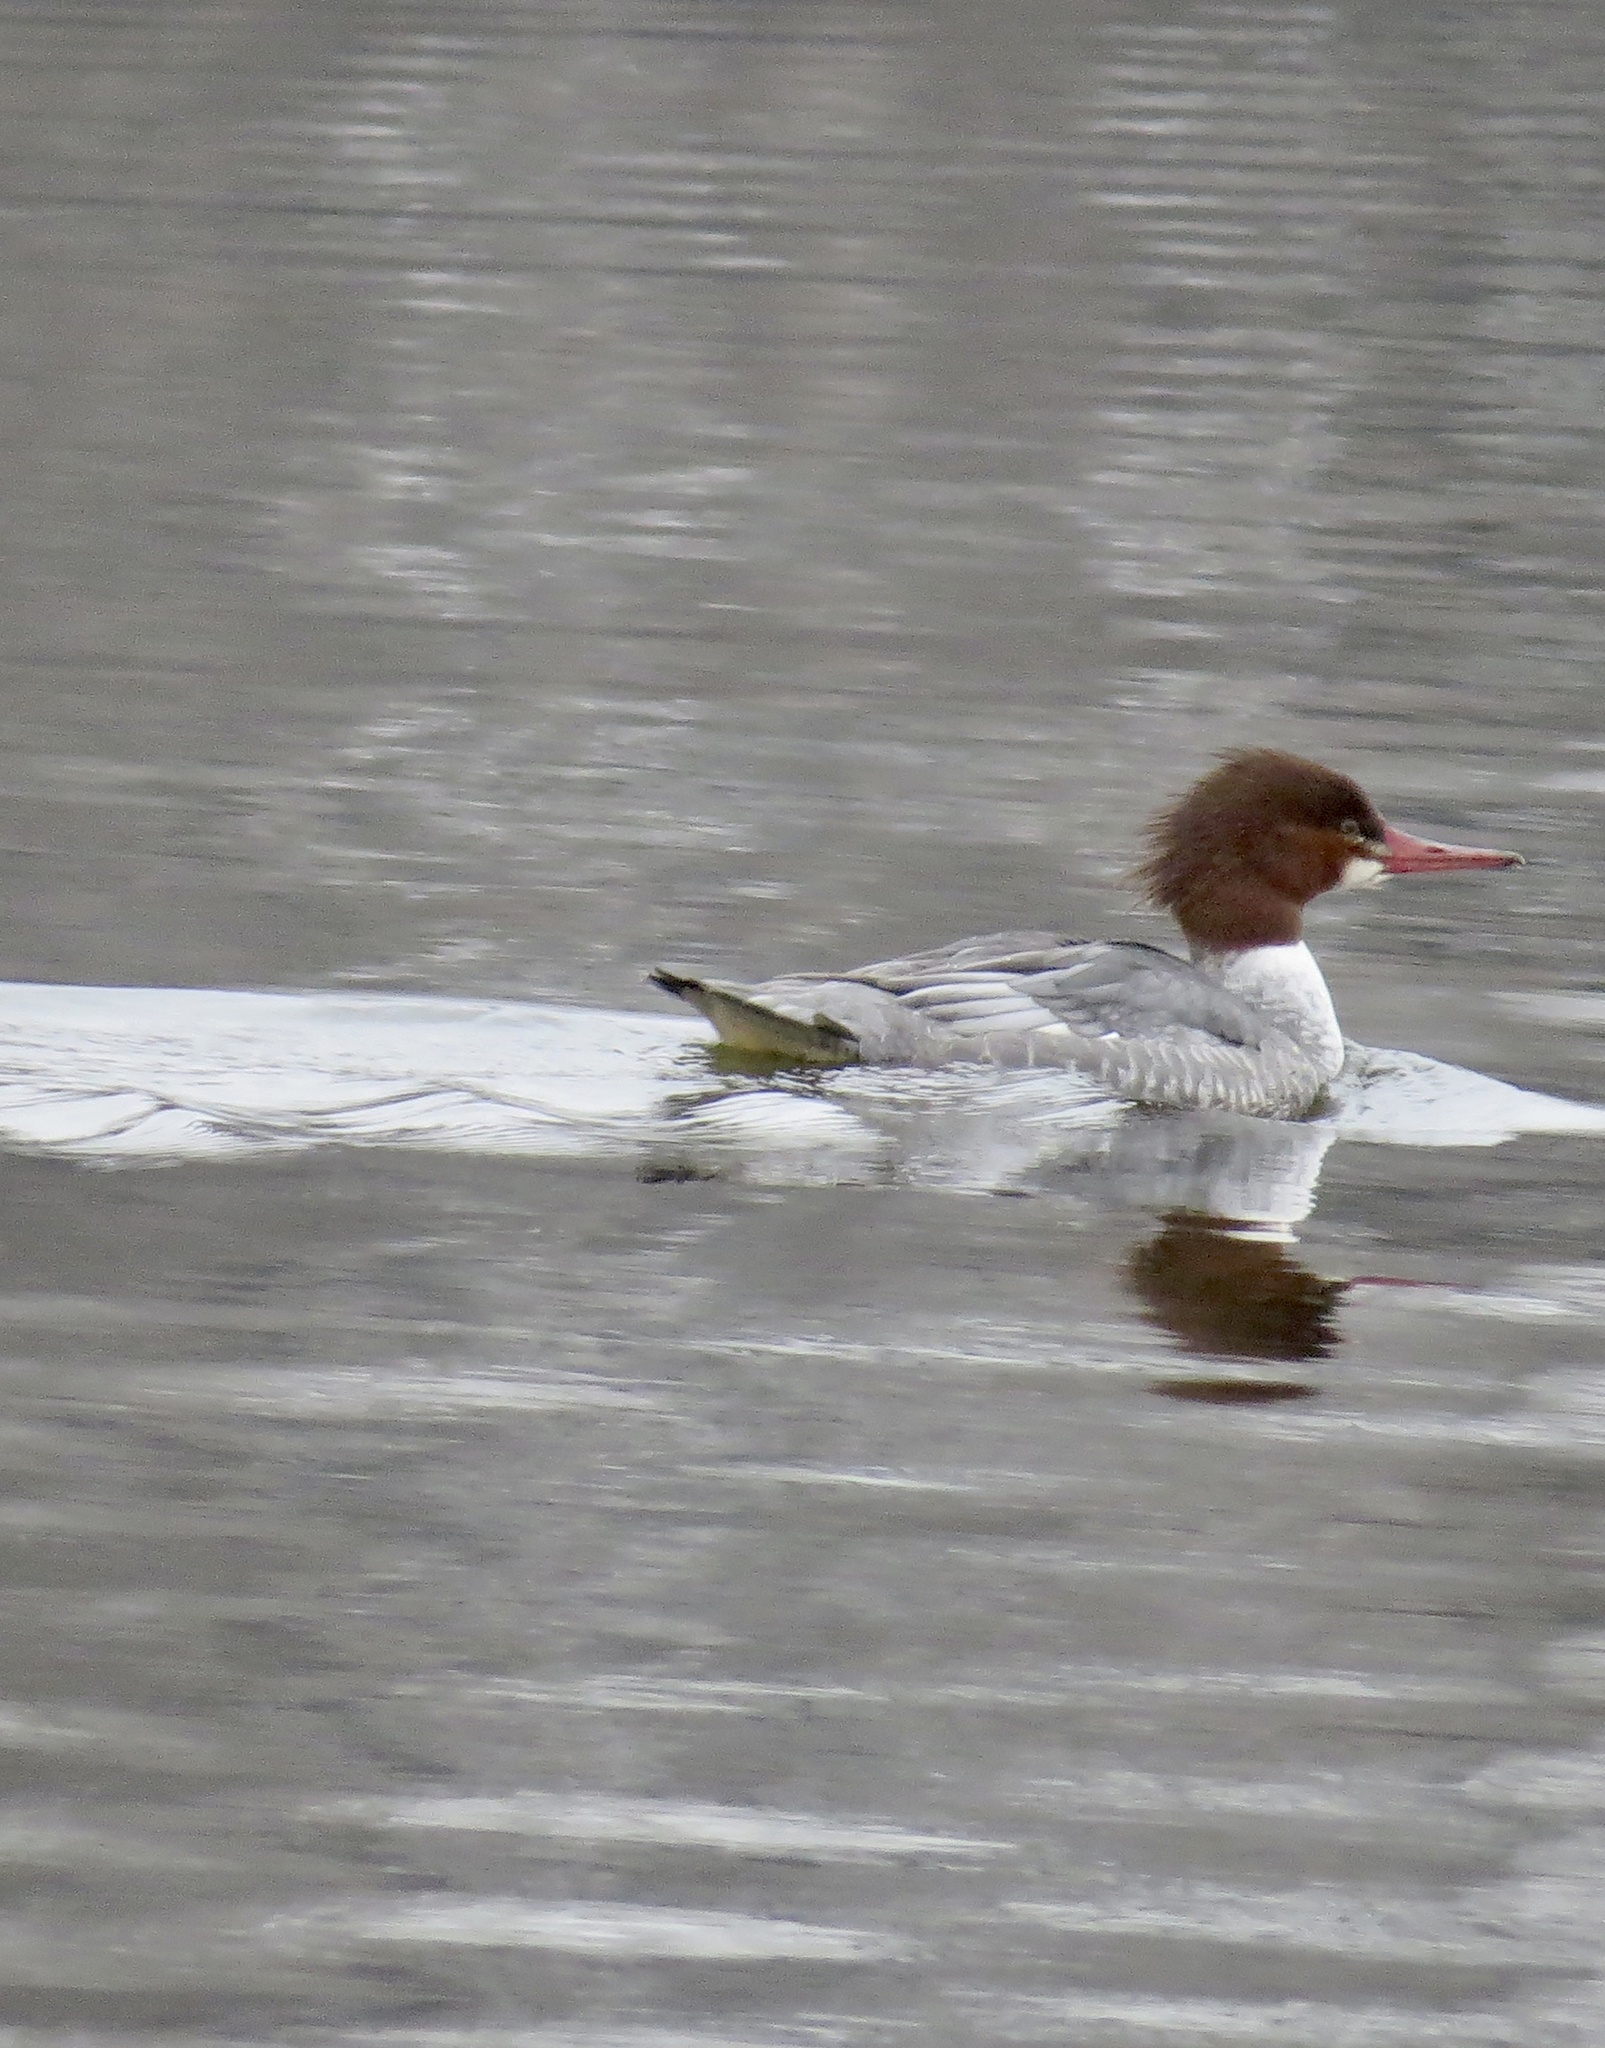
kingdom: Animalia
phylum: Chordata
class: Aves
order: Anseriformes
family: Anatidae
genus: Mergus
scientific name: Mergus merganser
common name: Common merganser
